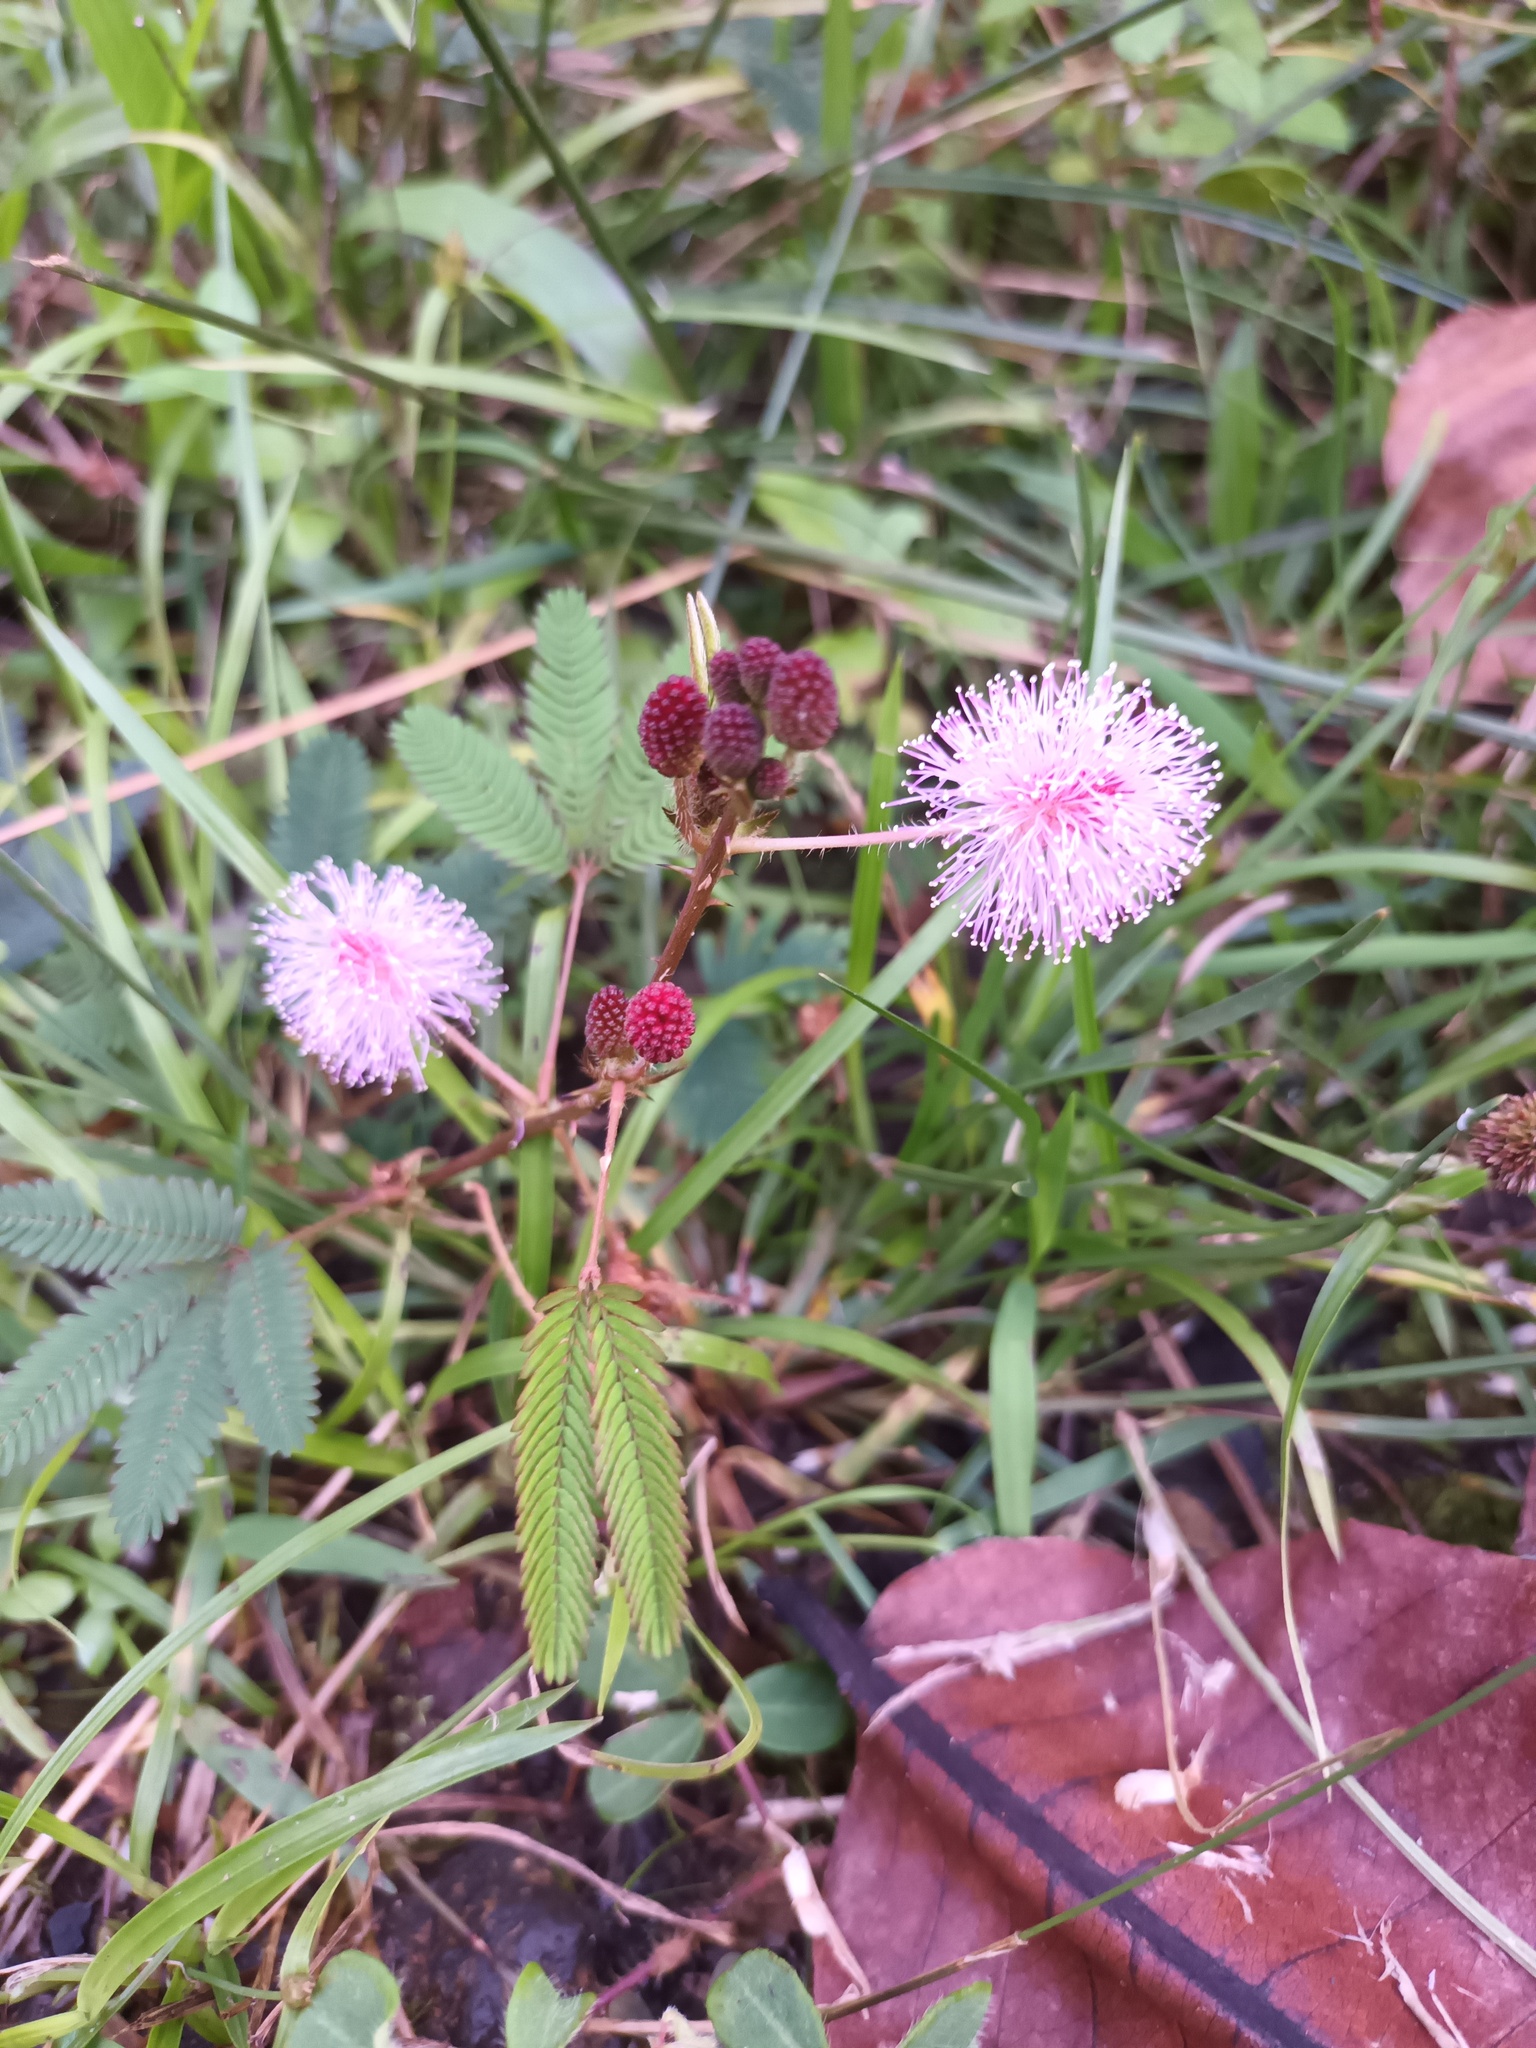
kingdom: Plantae
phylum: Tracheophyta
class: Magnoliopsida
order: Fabales
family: Fabaceae
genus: Mimosa
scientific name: Mimosa pudica
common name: Sensitive plant
